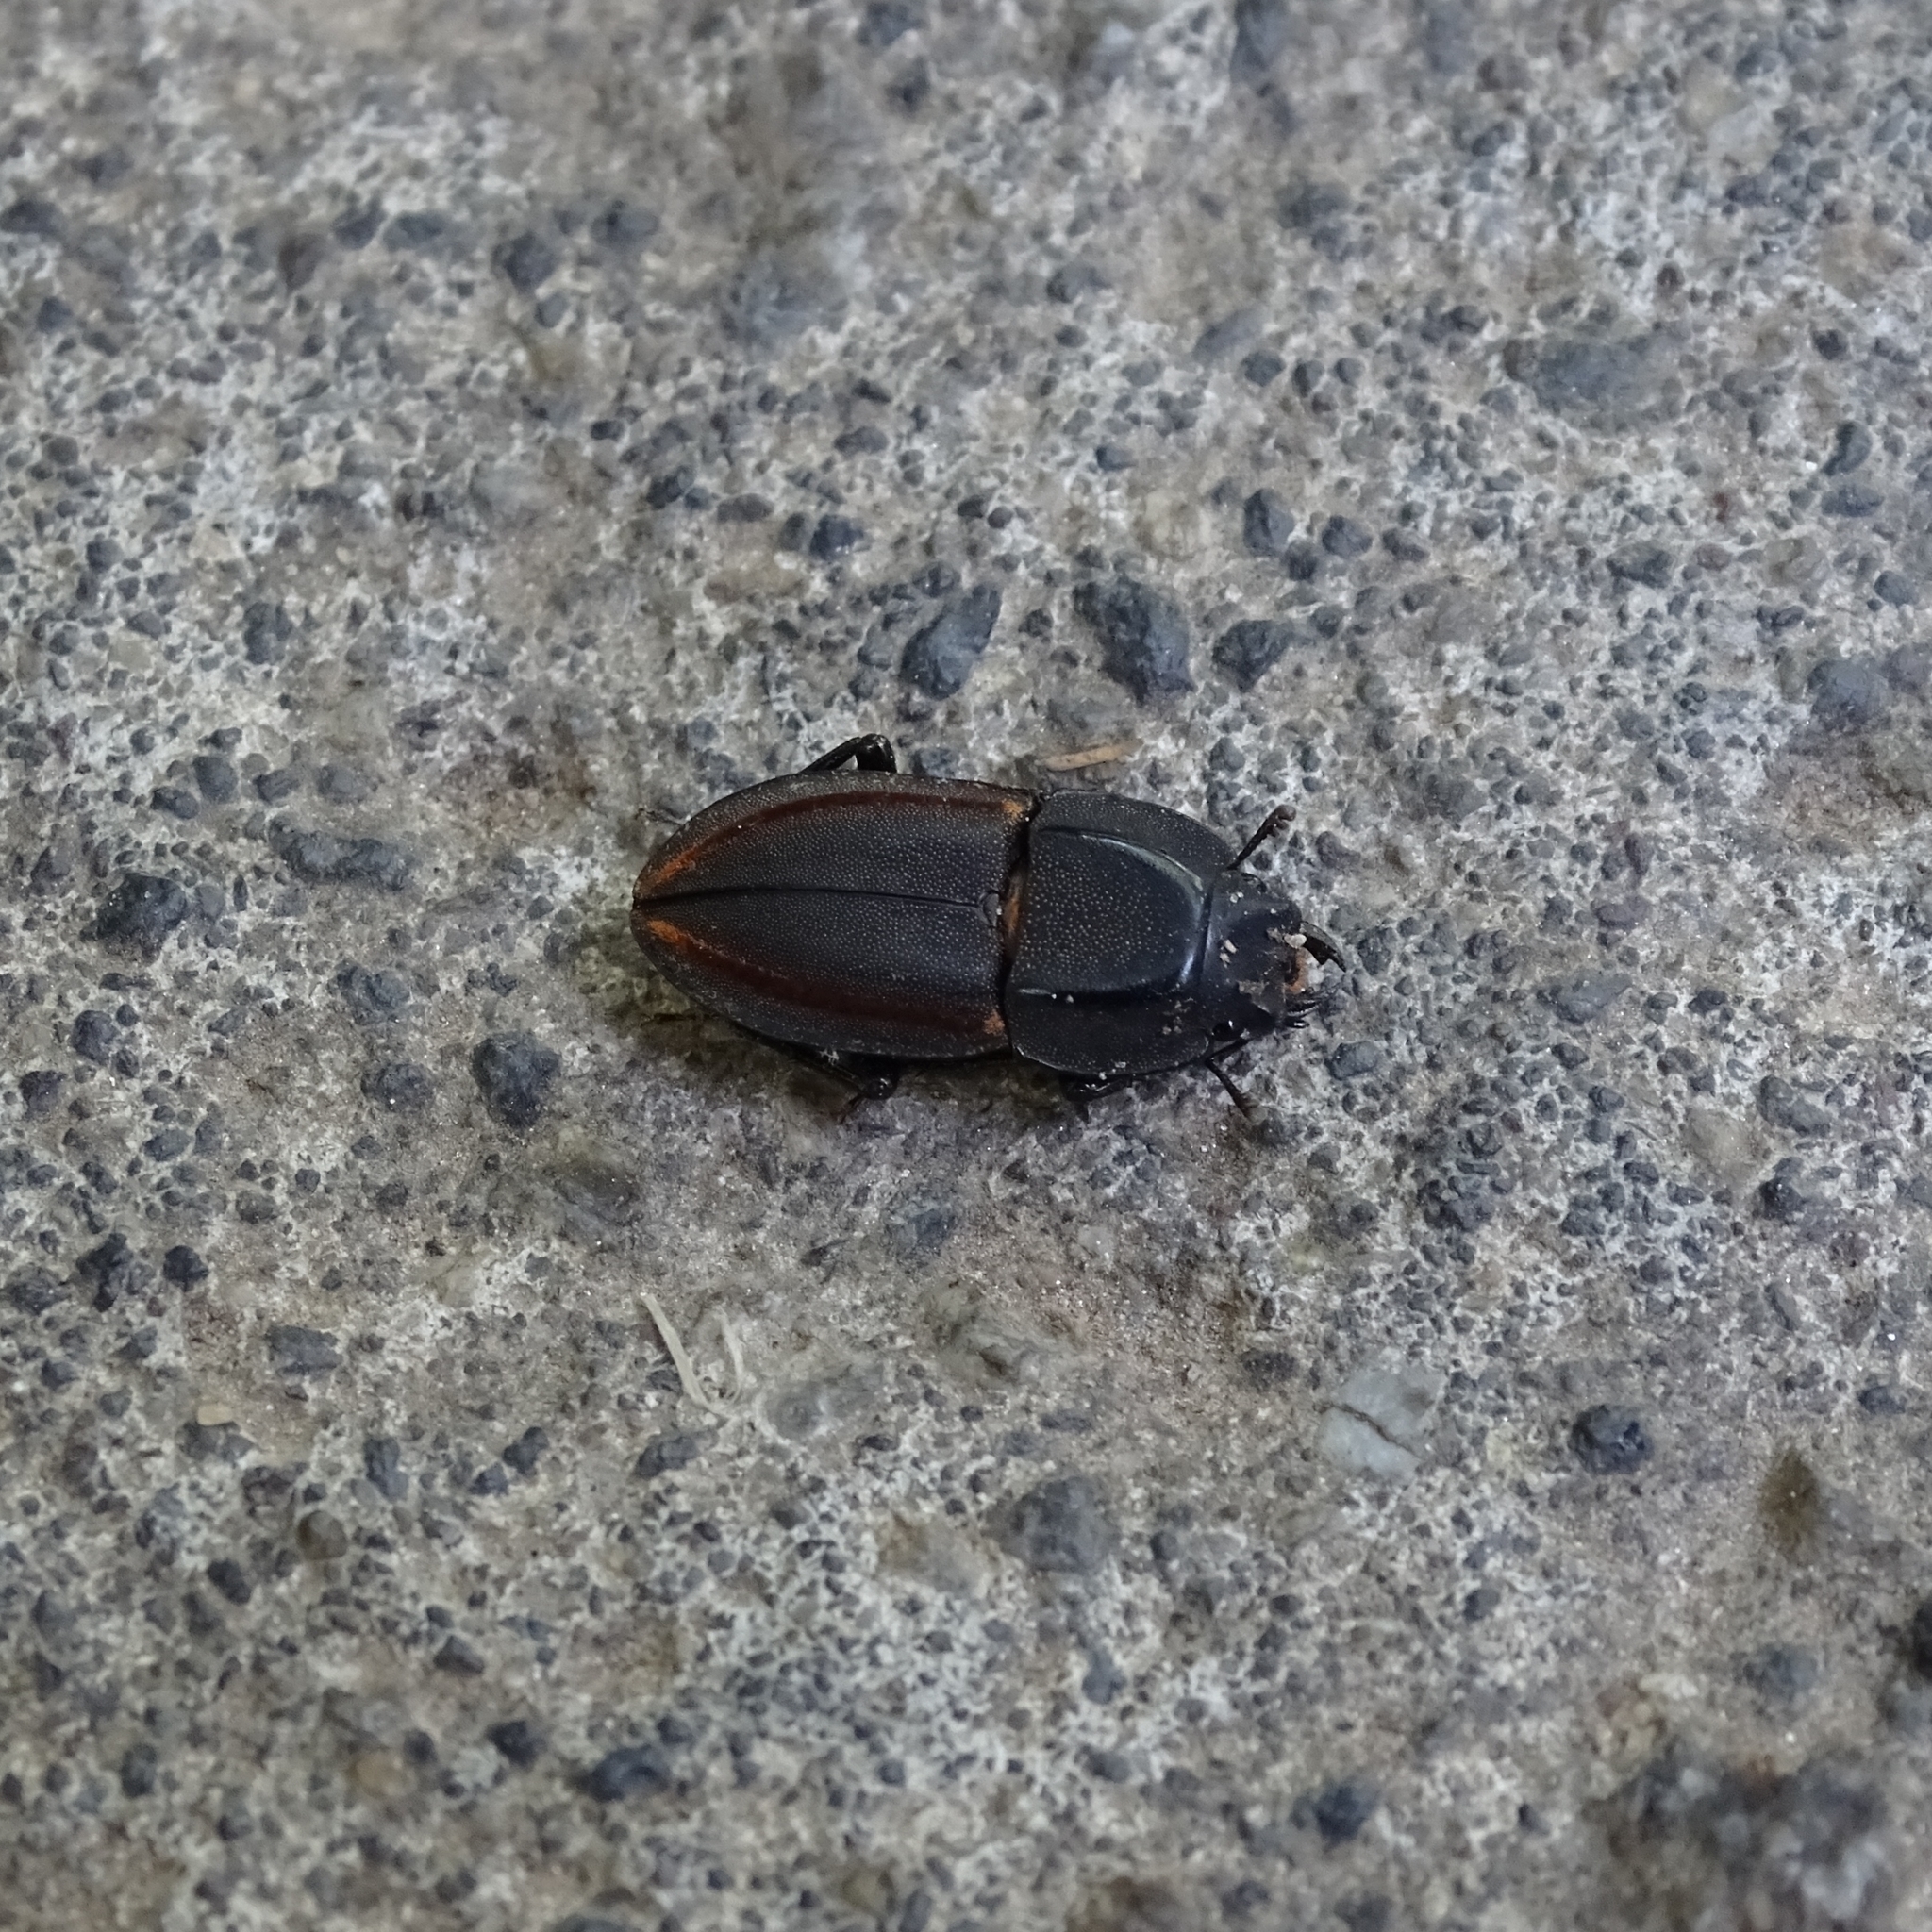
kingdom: Animalia
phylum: Arthropoda
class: Insecta
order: Coleoptera
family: Lucanidae
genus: Erichius
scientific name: Erichius vittatus
